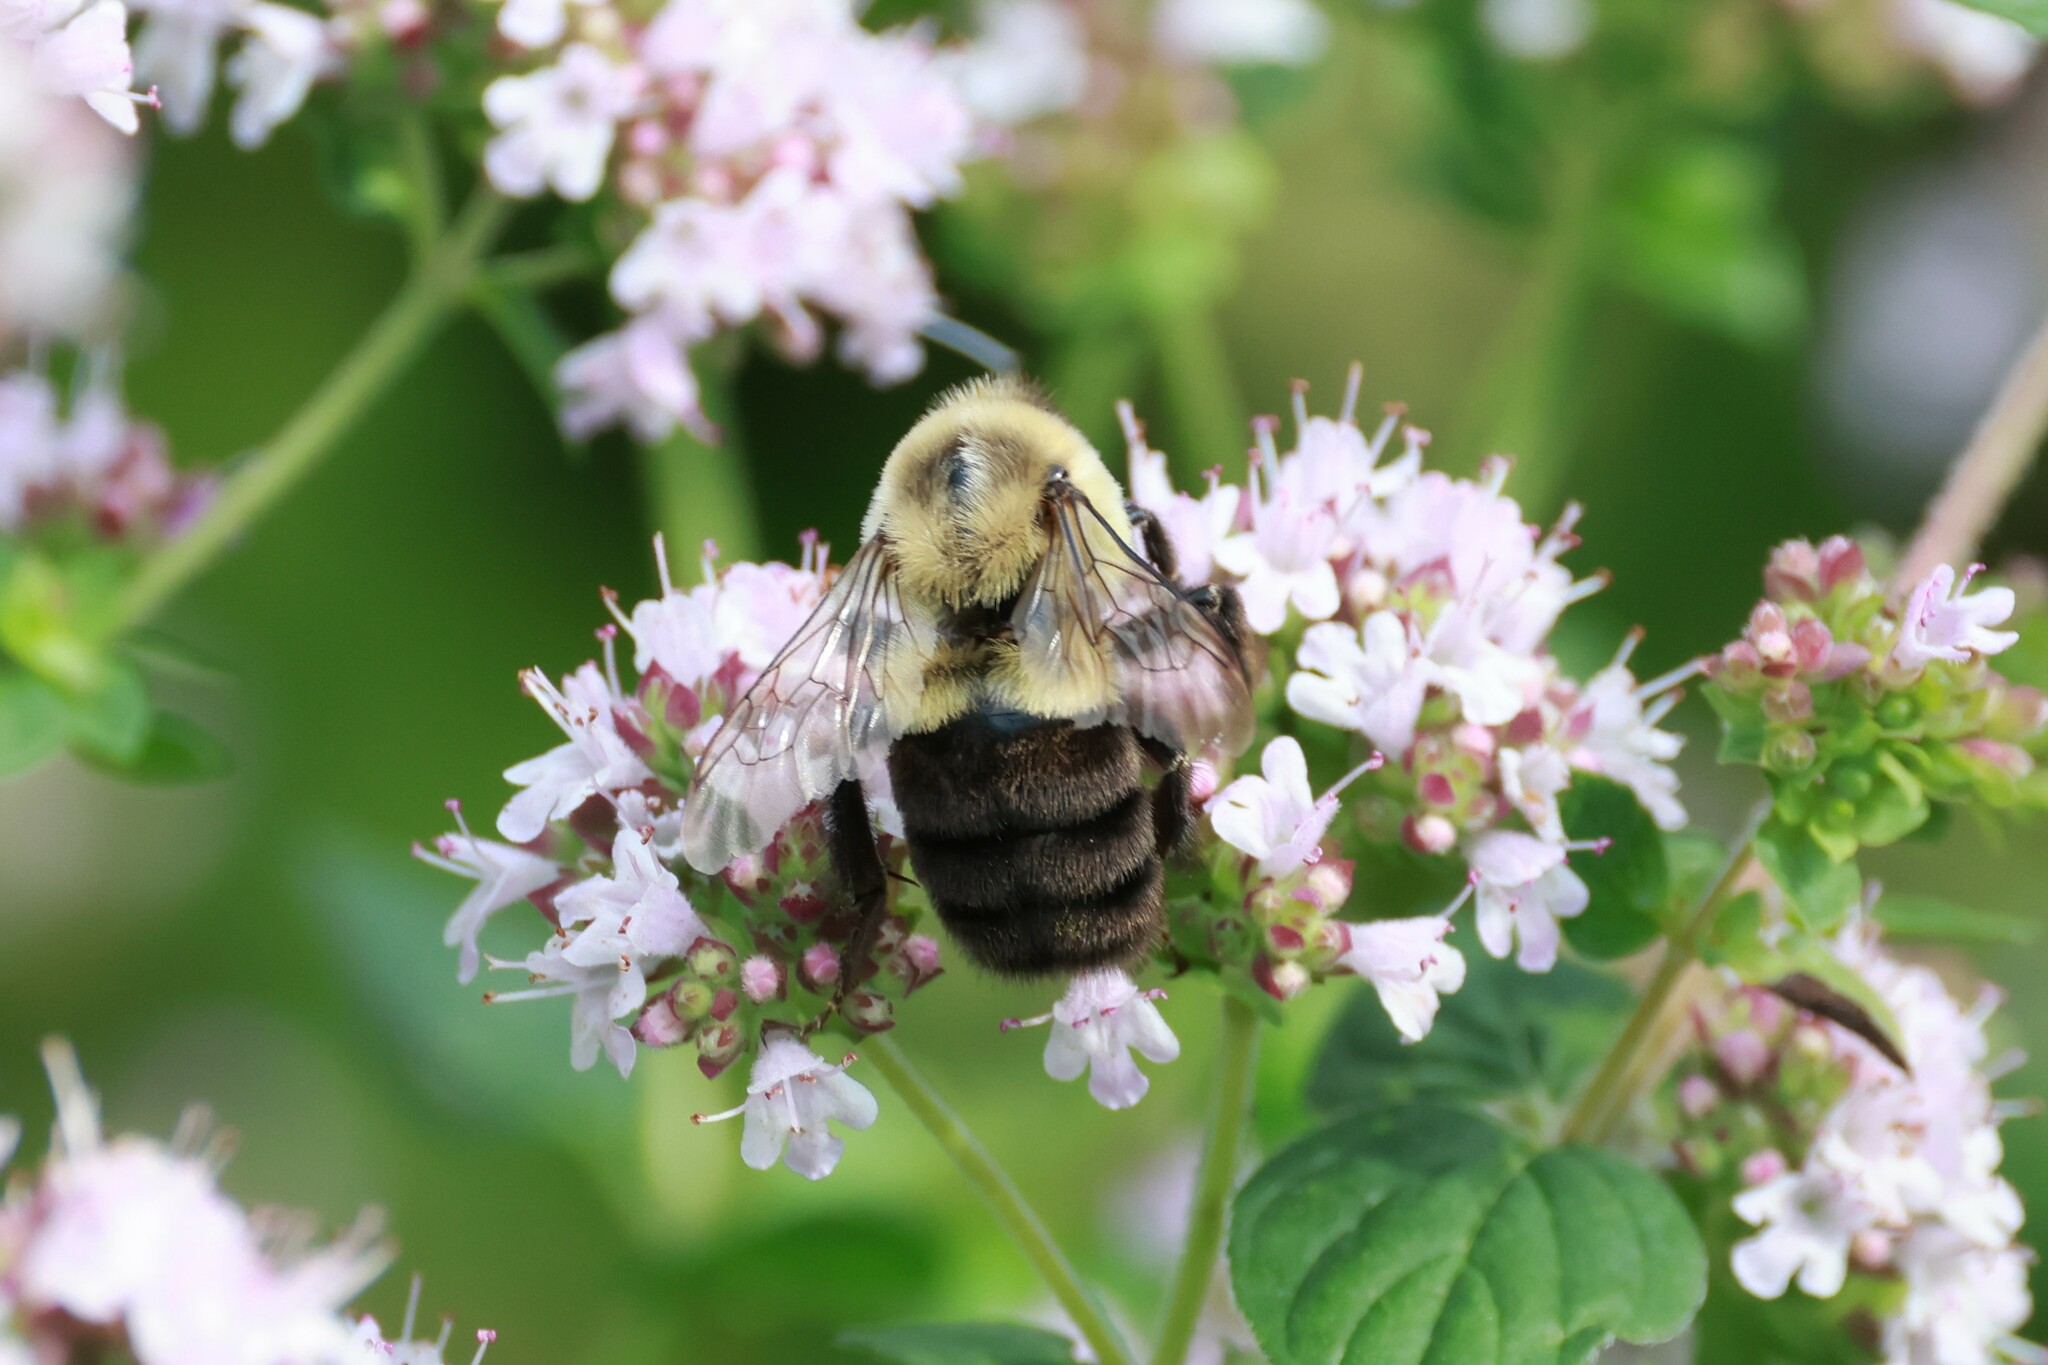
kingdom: Animalia
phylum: Arthropoda
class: Insecta
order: Hymenoptera
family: Apidae
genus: Bombus
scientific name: Bombus impatiens
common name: Common eastern bumble bee
